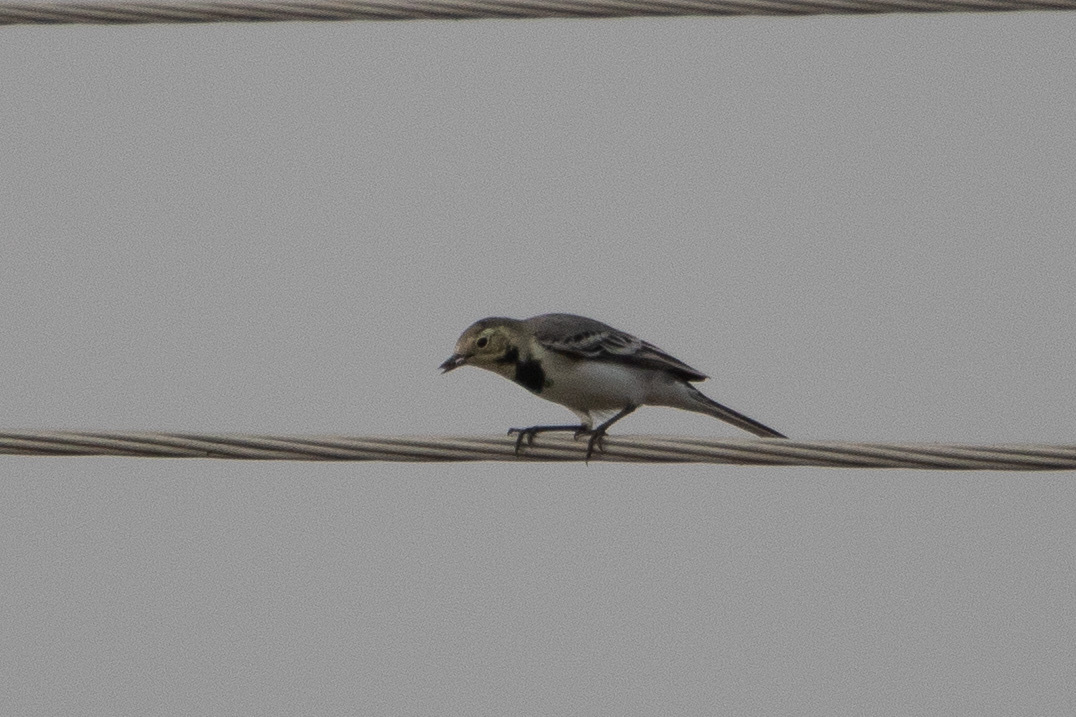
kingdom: Animalia
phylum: Chordata
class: Aves
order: Passeriformes
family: Motacillidae
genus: Motacilla
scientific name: Motacilla alba
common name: White wagtail
